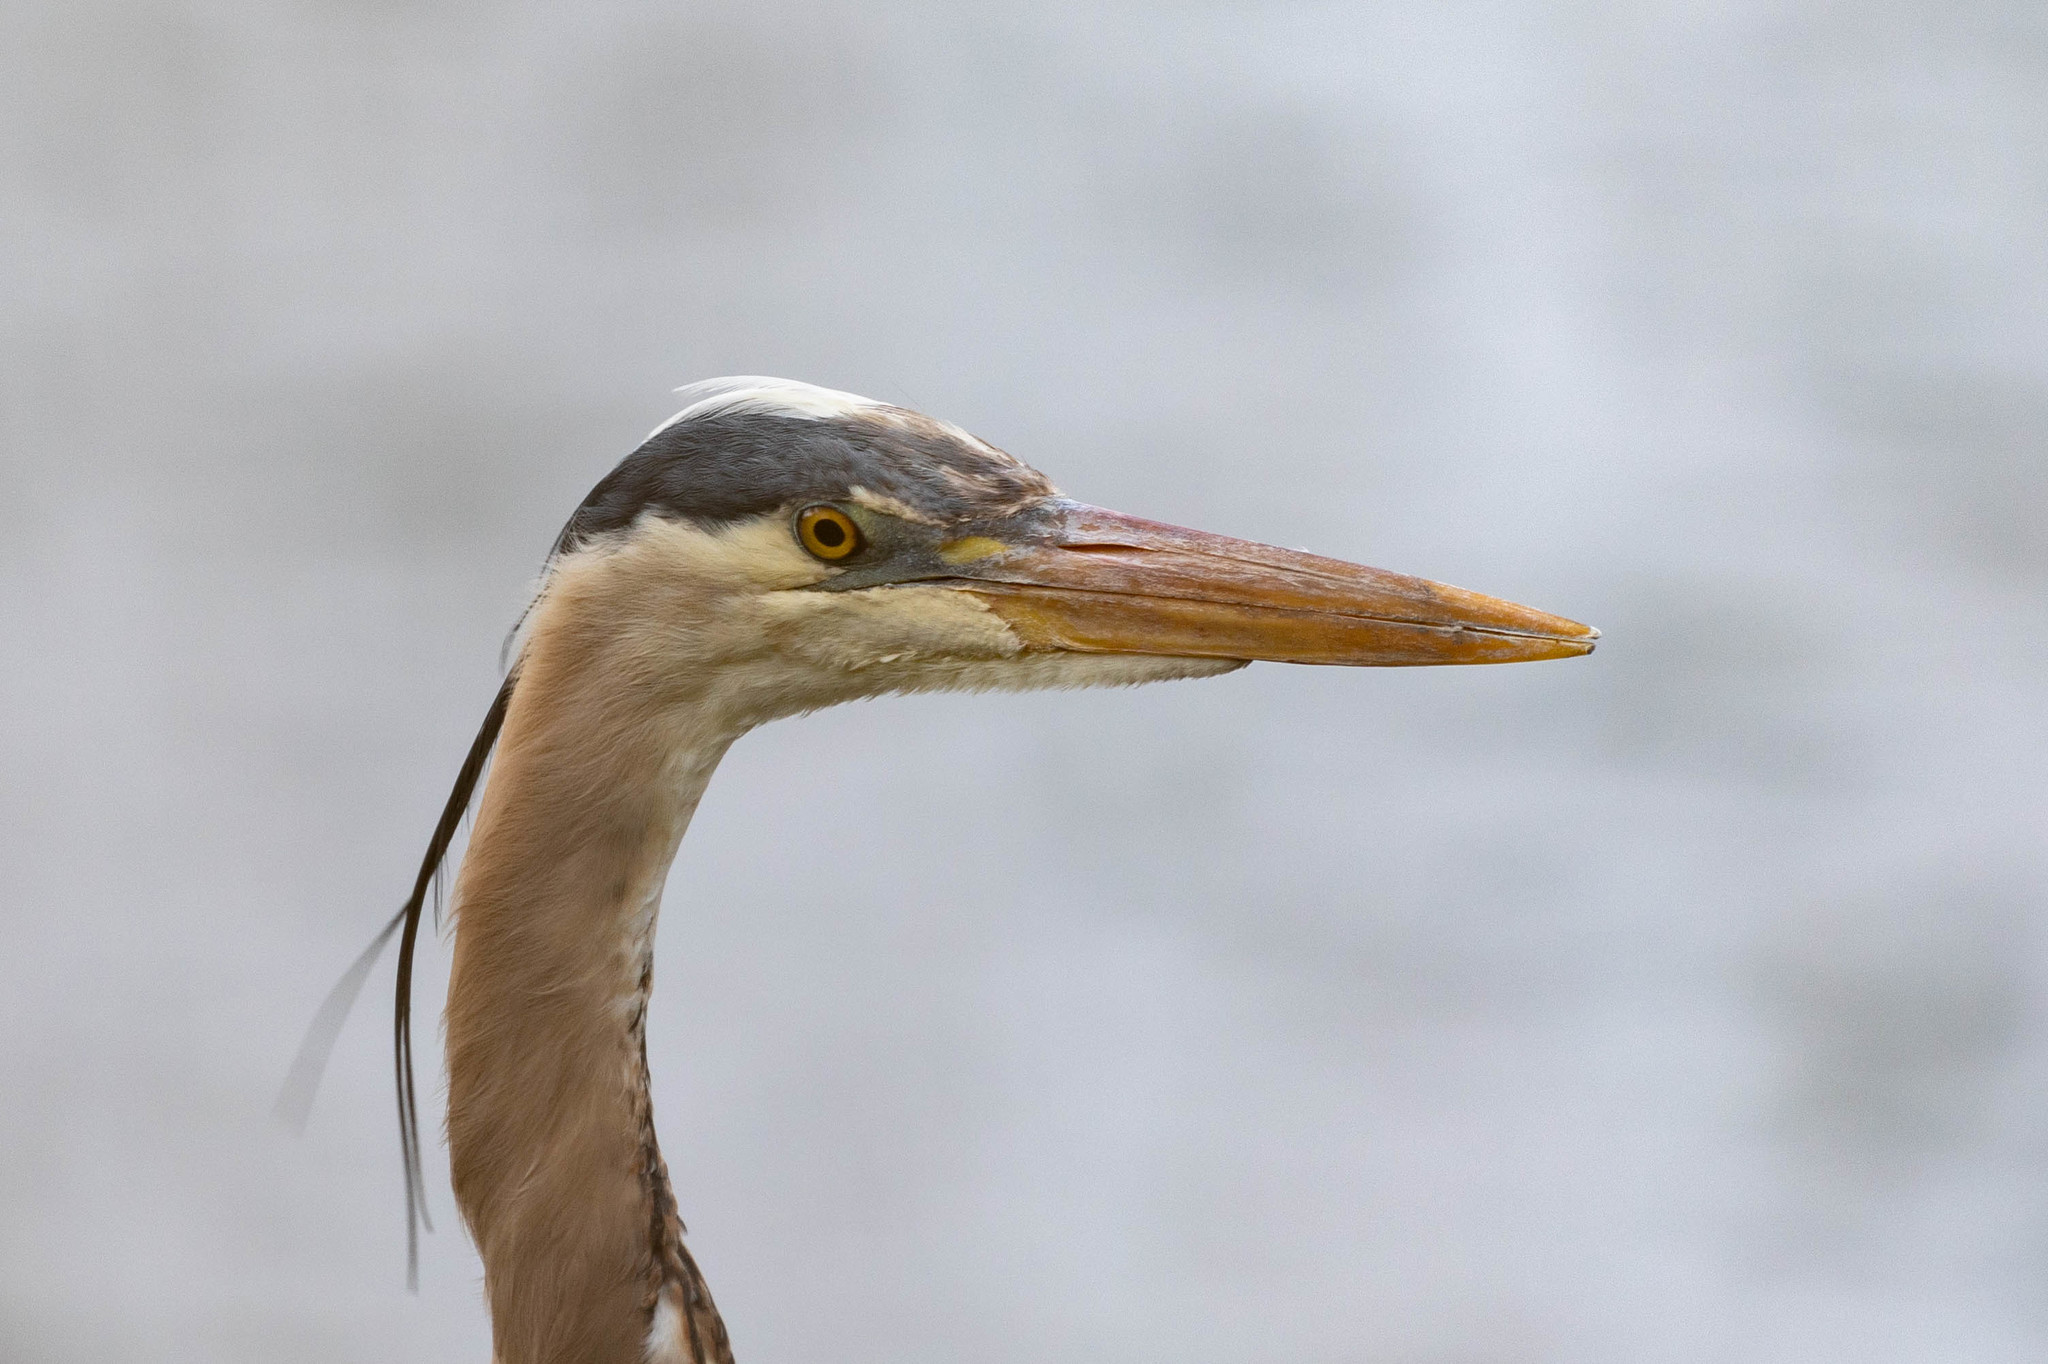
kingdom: Animalia
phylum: Chordata
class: Aves
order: Pelecaniformes
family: Ardeidae
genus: Ardea
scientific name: Ardea herodias
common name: Great blue heron
